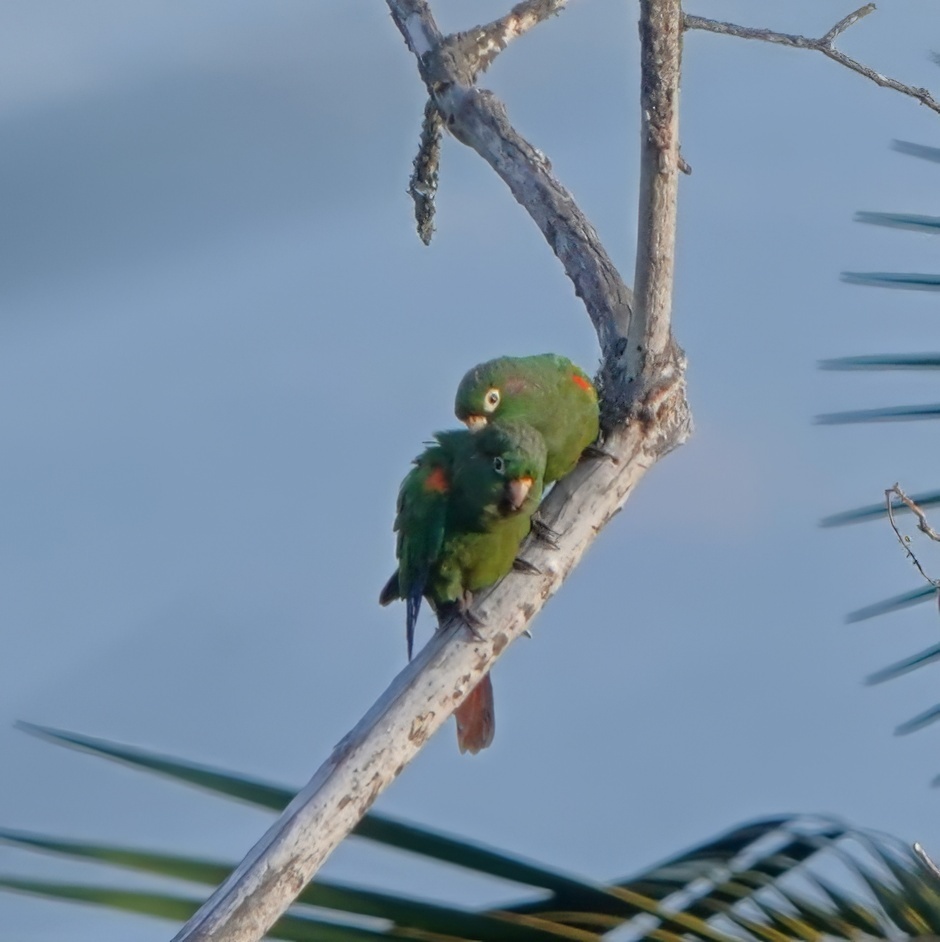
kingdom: Animalia
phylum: Chordata
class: Aves
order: Psittaciformes
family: Psittacidae
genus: Pyrrhura
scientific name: Pyrrhura viridicata
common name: Santa marta parakeet
